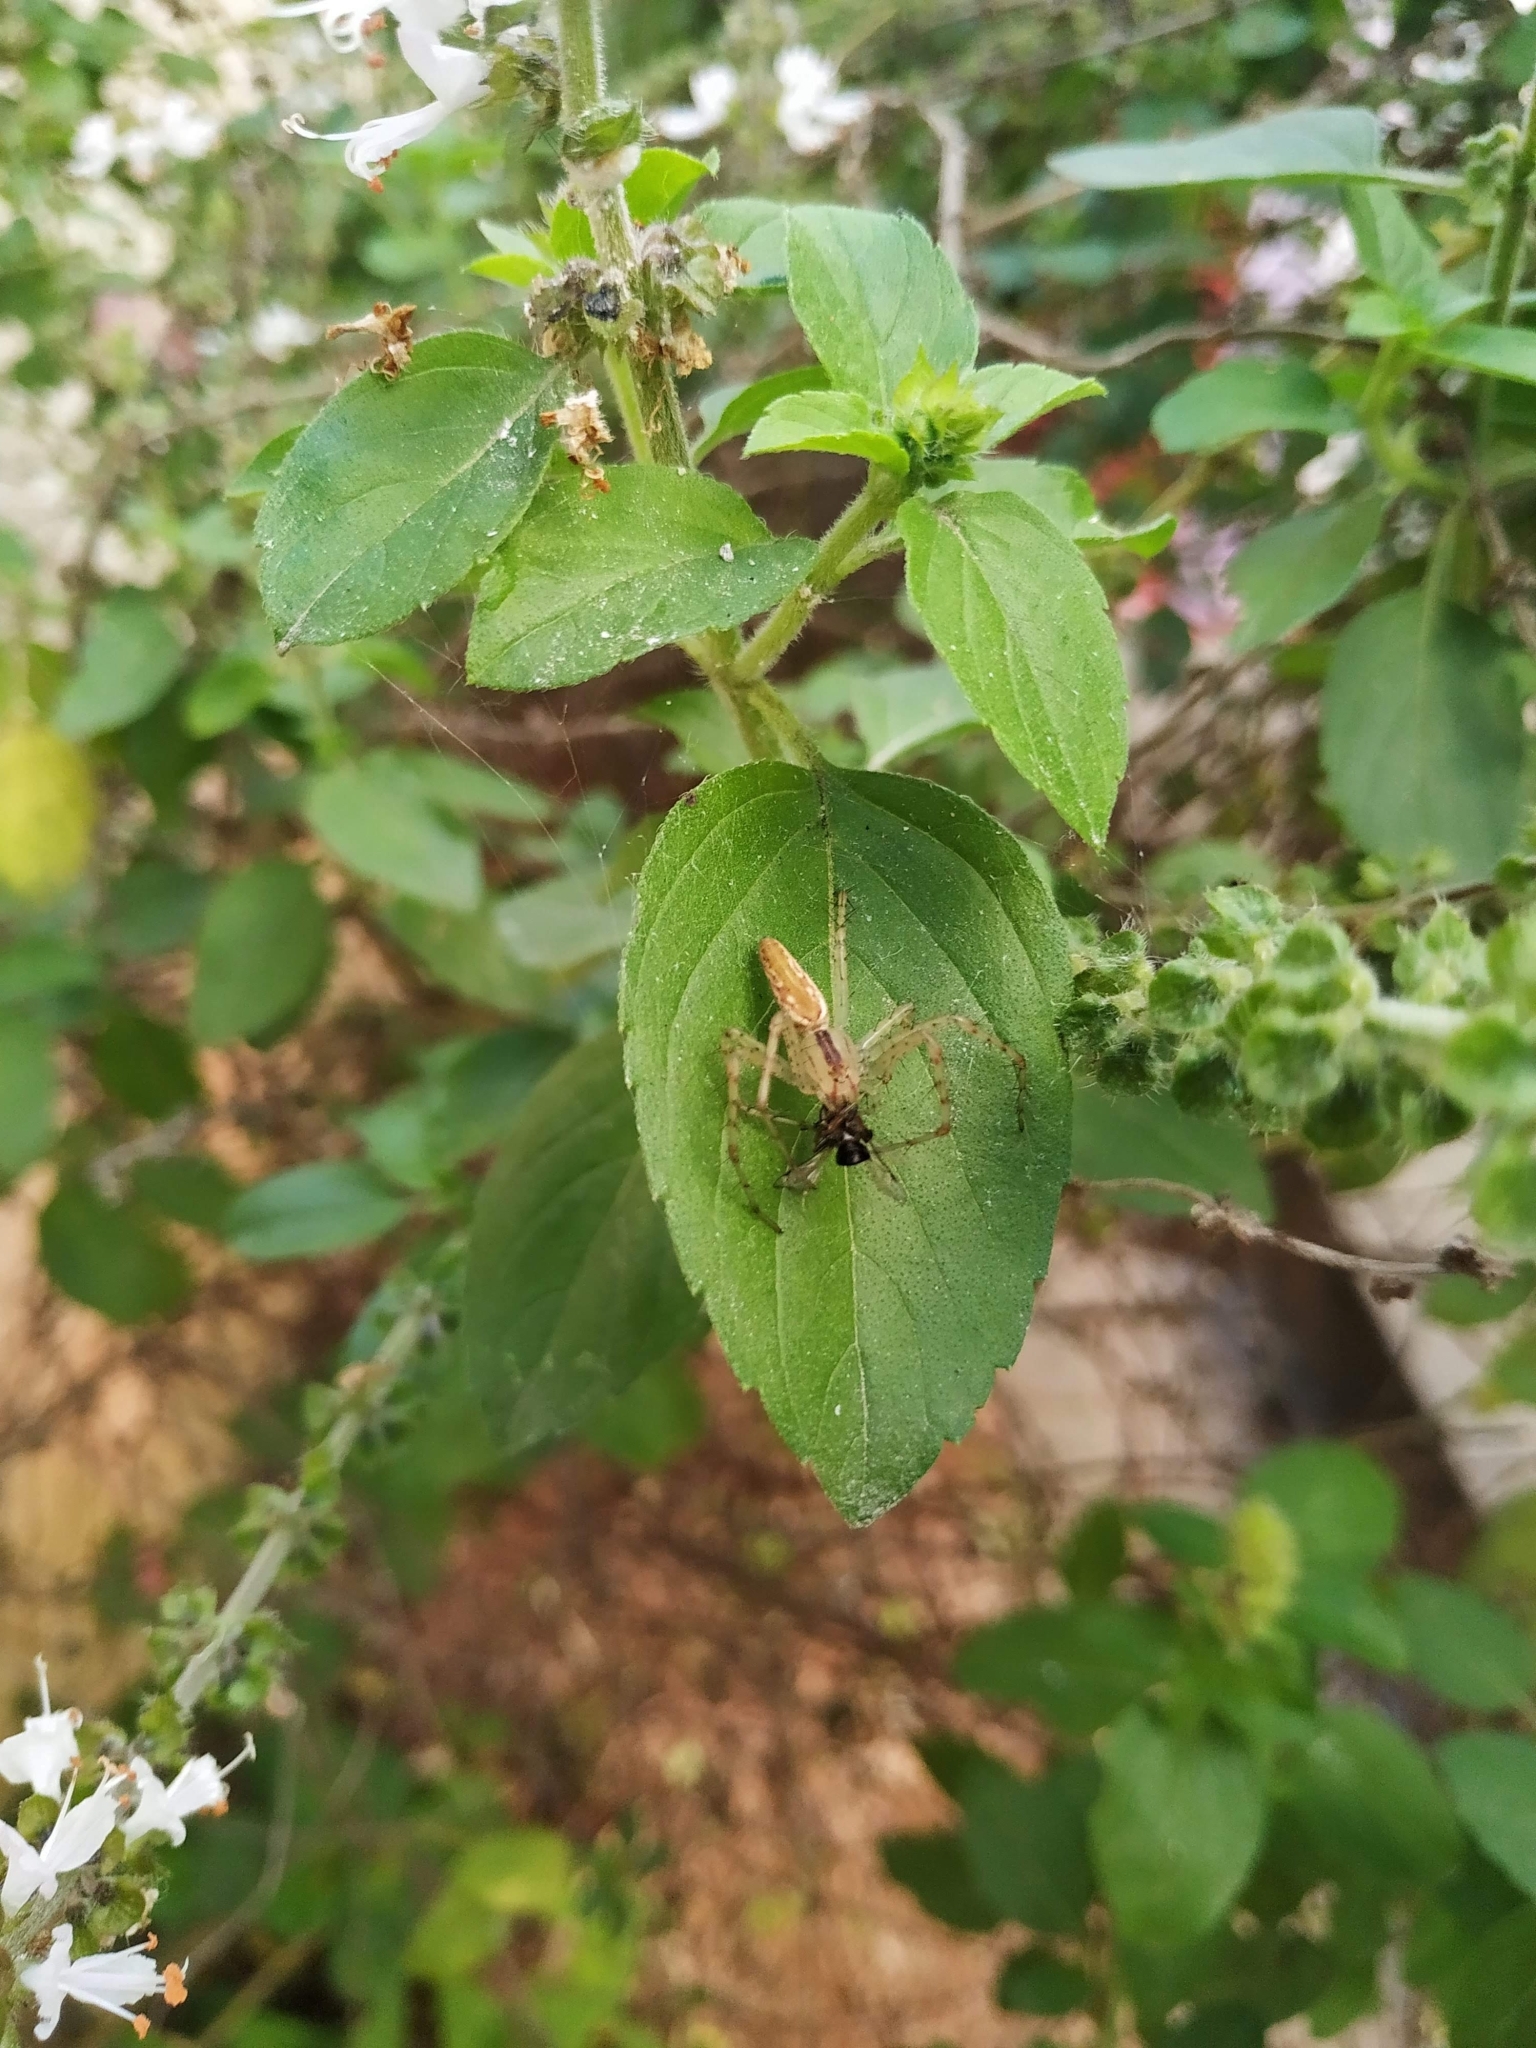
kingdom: Animalia
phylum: Arthropoda
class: Arachnida
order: Araneae
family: Oxyopidae
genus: Peucetia
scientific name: Peucetia rubrolineata
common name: Lynx spiders
